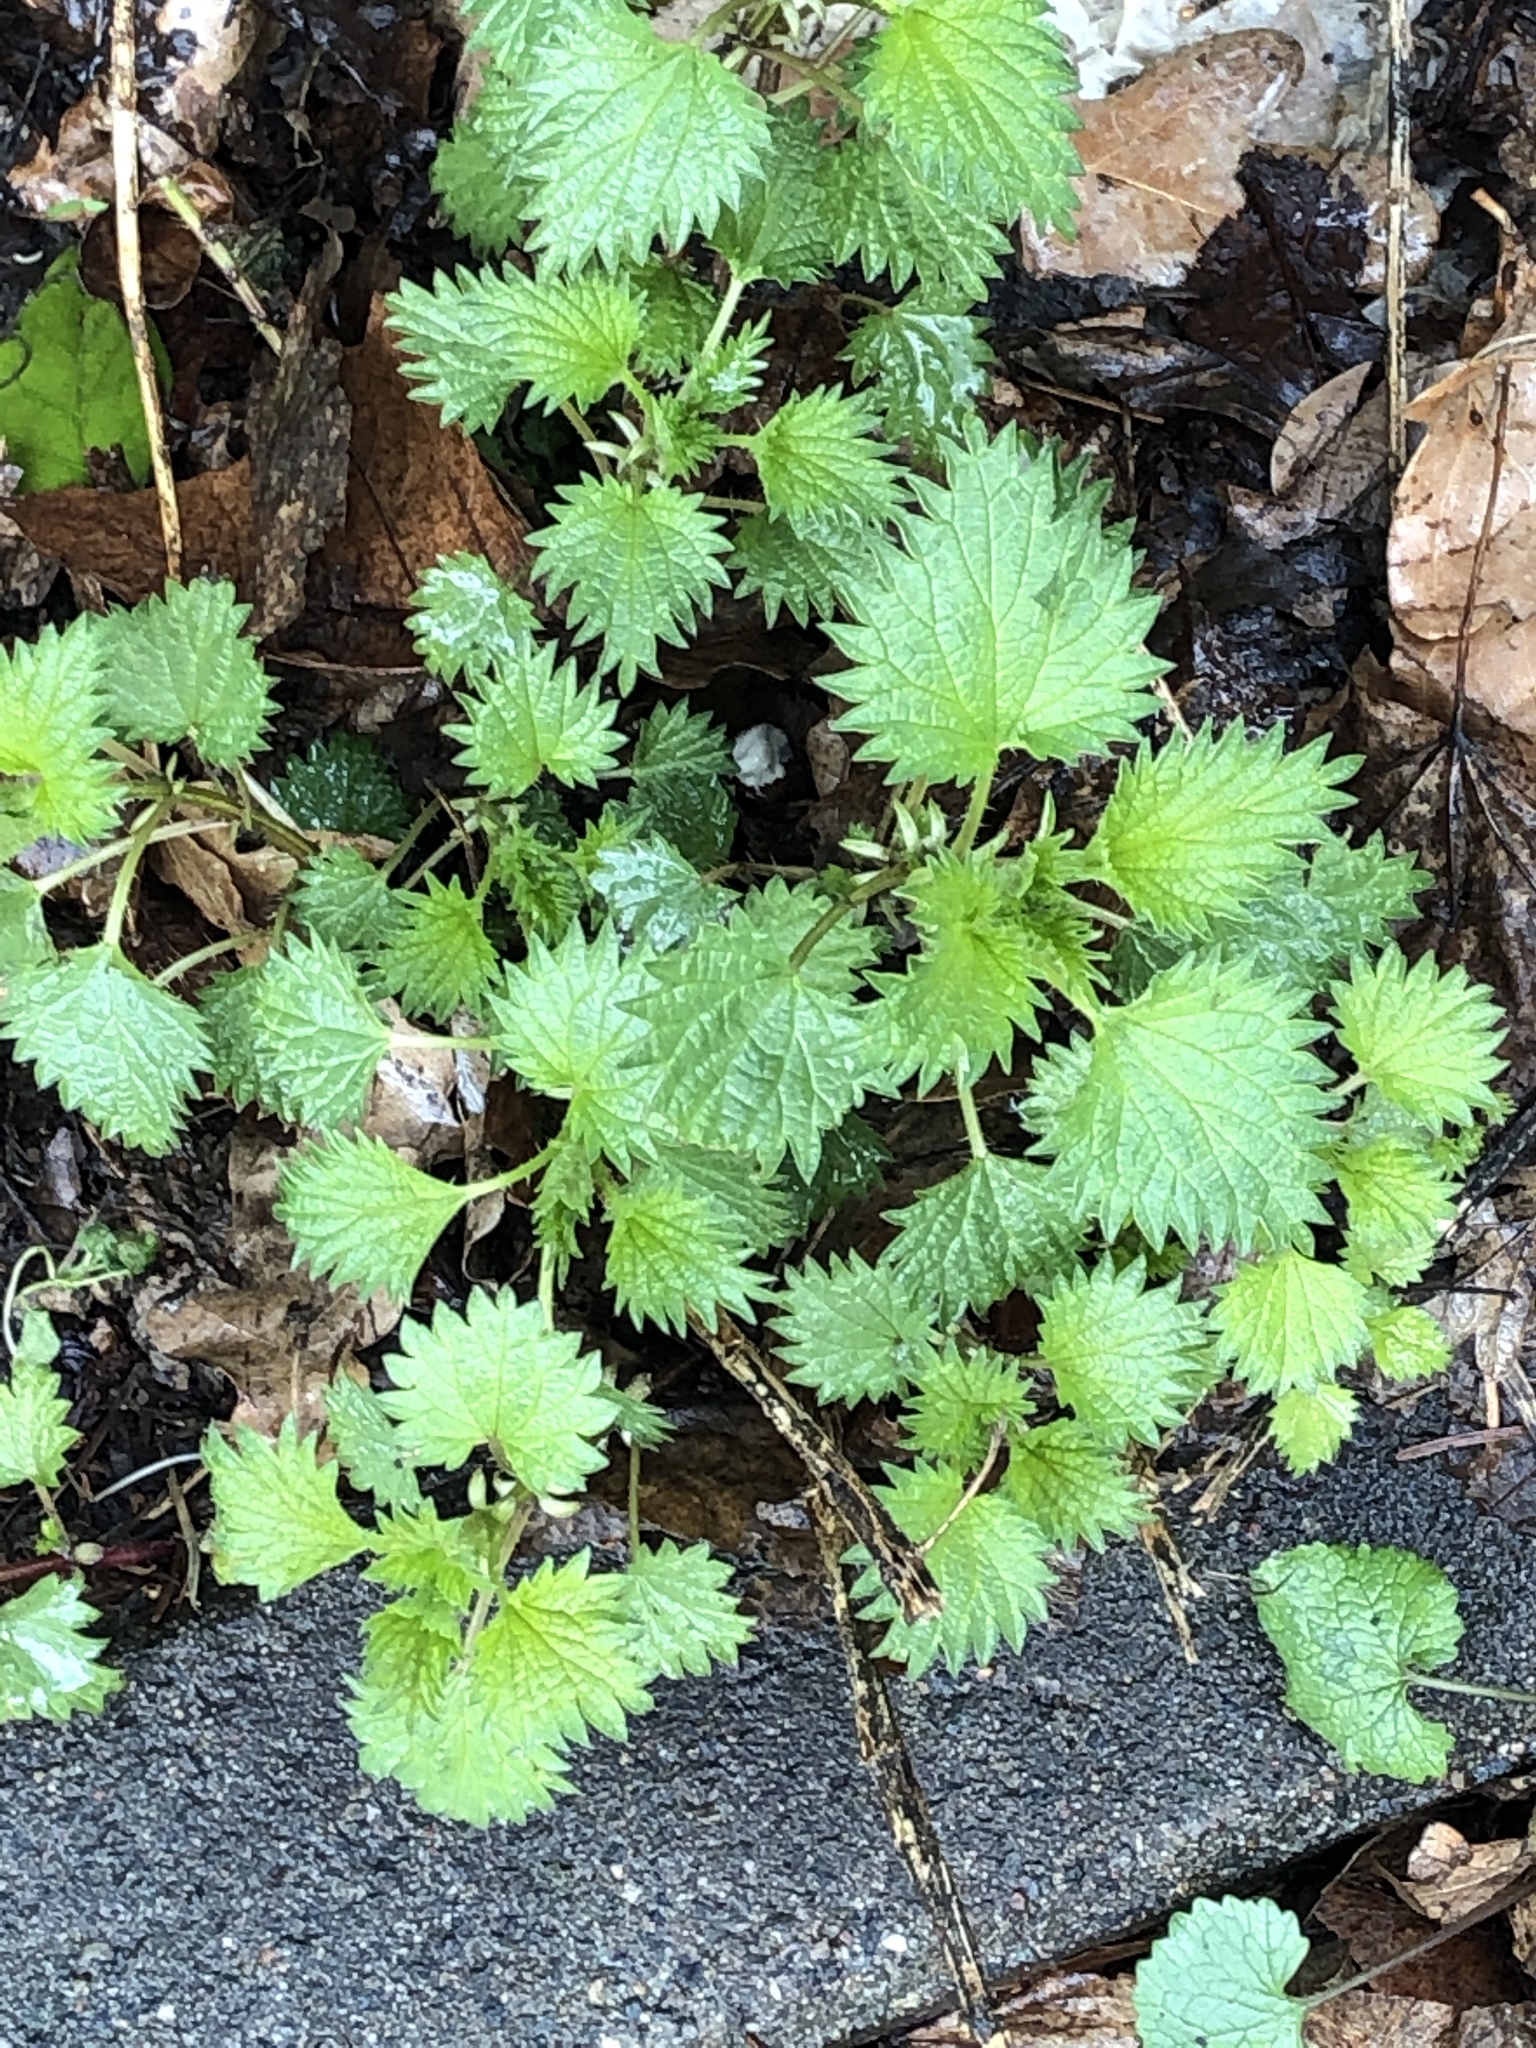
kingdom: Plantae
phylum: Tracheophyta
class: Magnoliopsida
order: Rosales
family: Urticaceae
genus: Urtica
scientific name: Urtica urens
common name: Dwarf nettle
